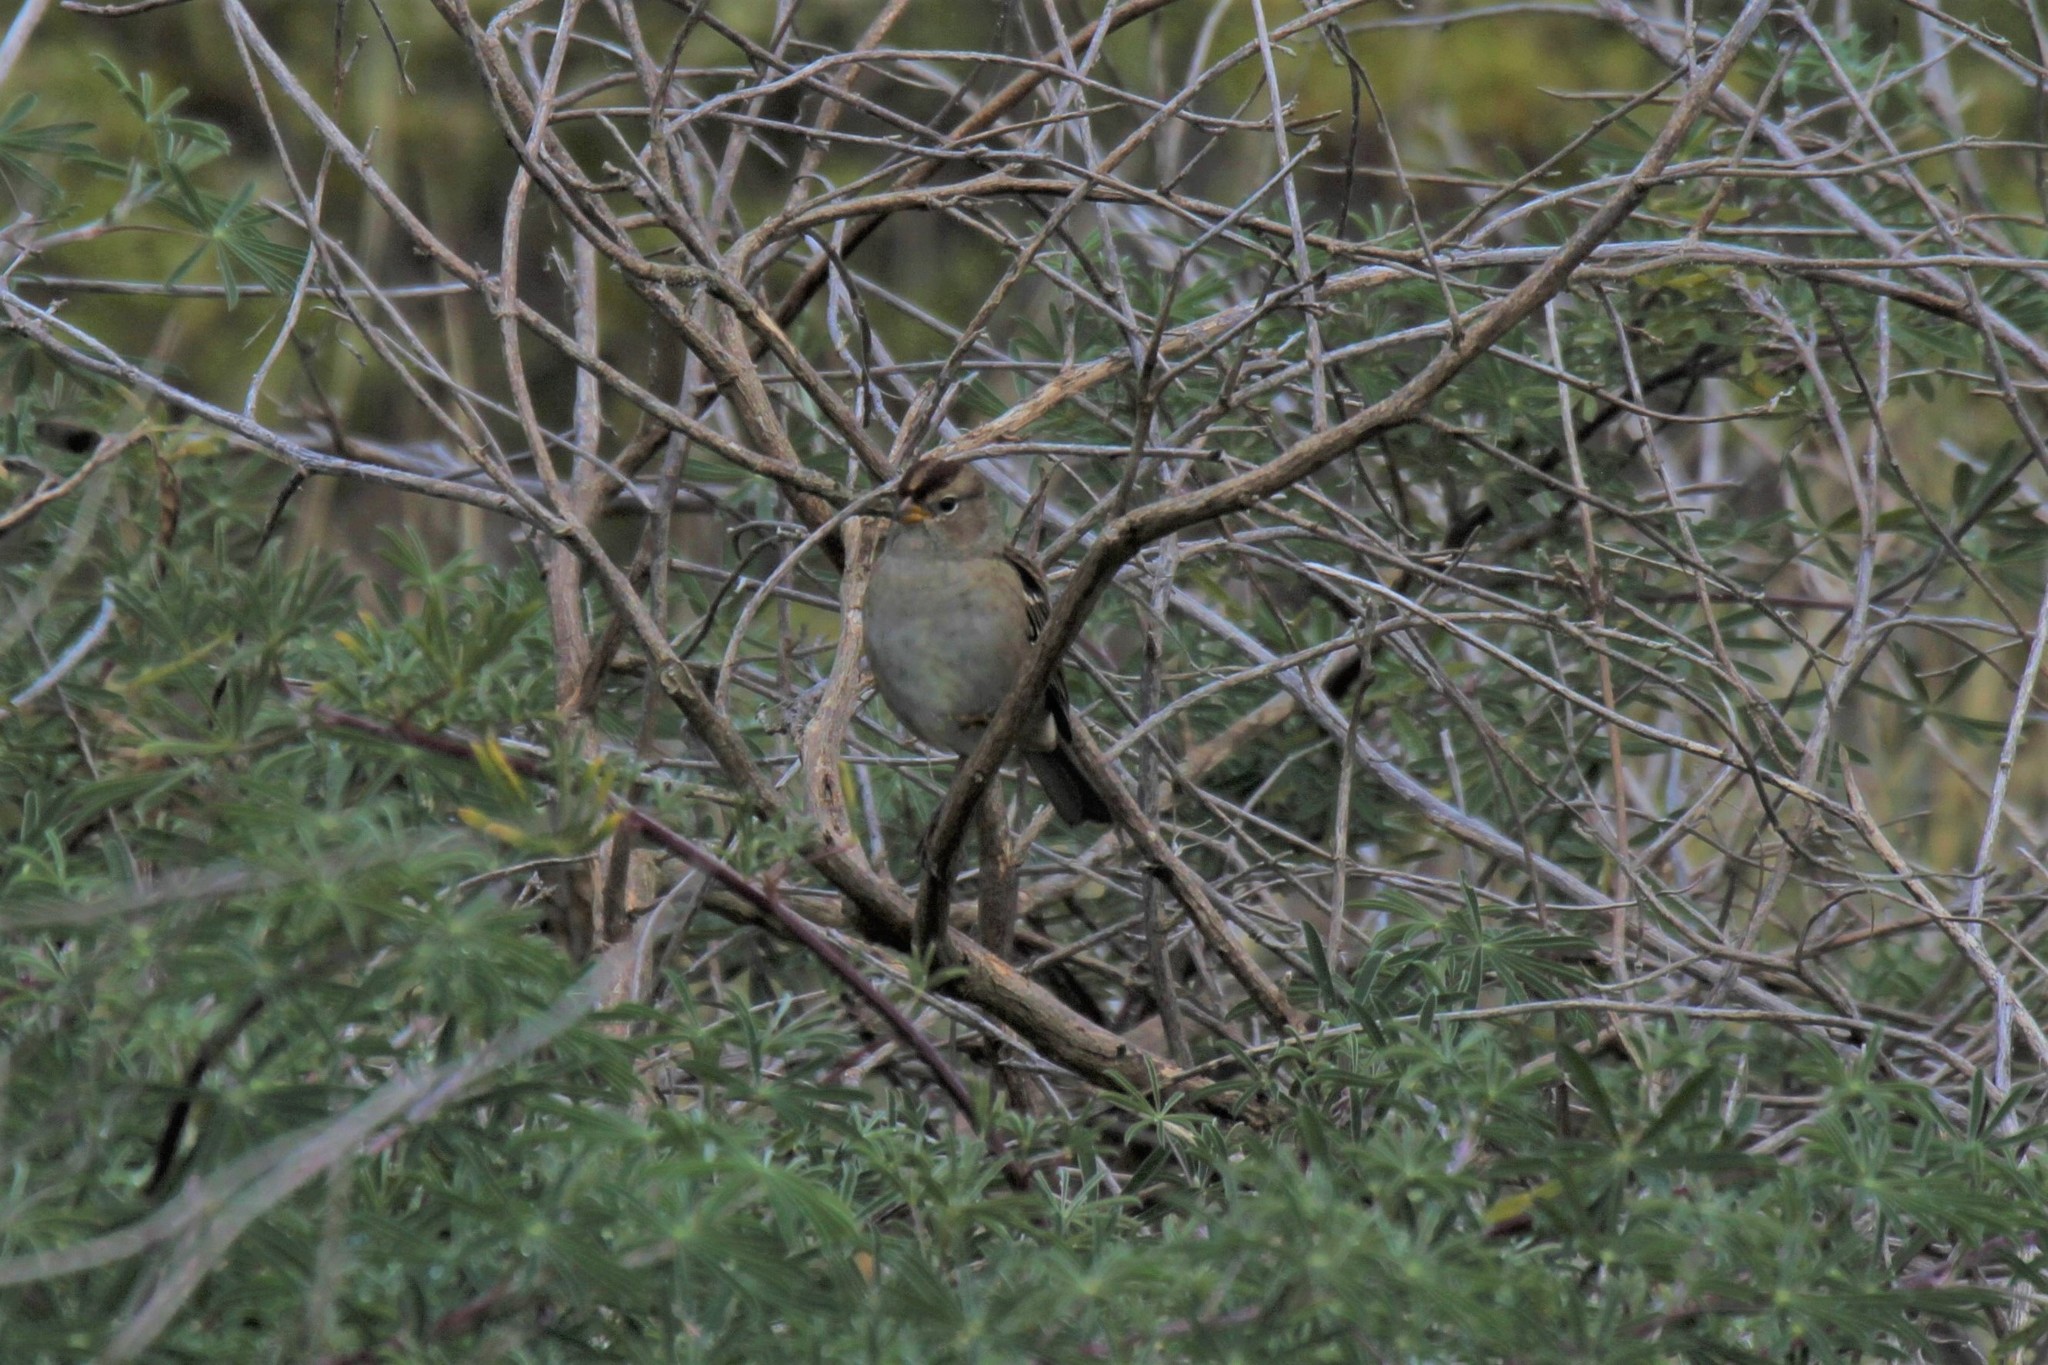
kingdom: Animalia
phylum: Chordata
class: Aves
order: Passeriformes
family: Passerellidae
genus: Zonotrichia
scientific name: Zonotrichia leucophrys
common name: White-crowned sparrow
